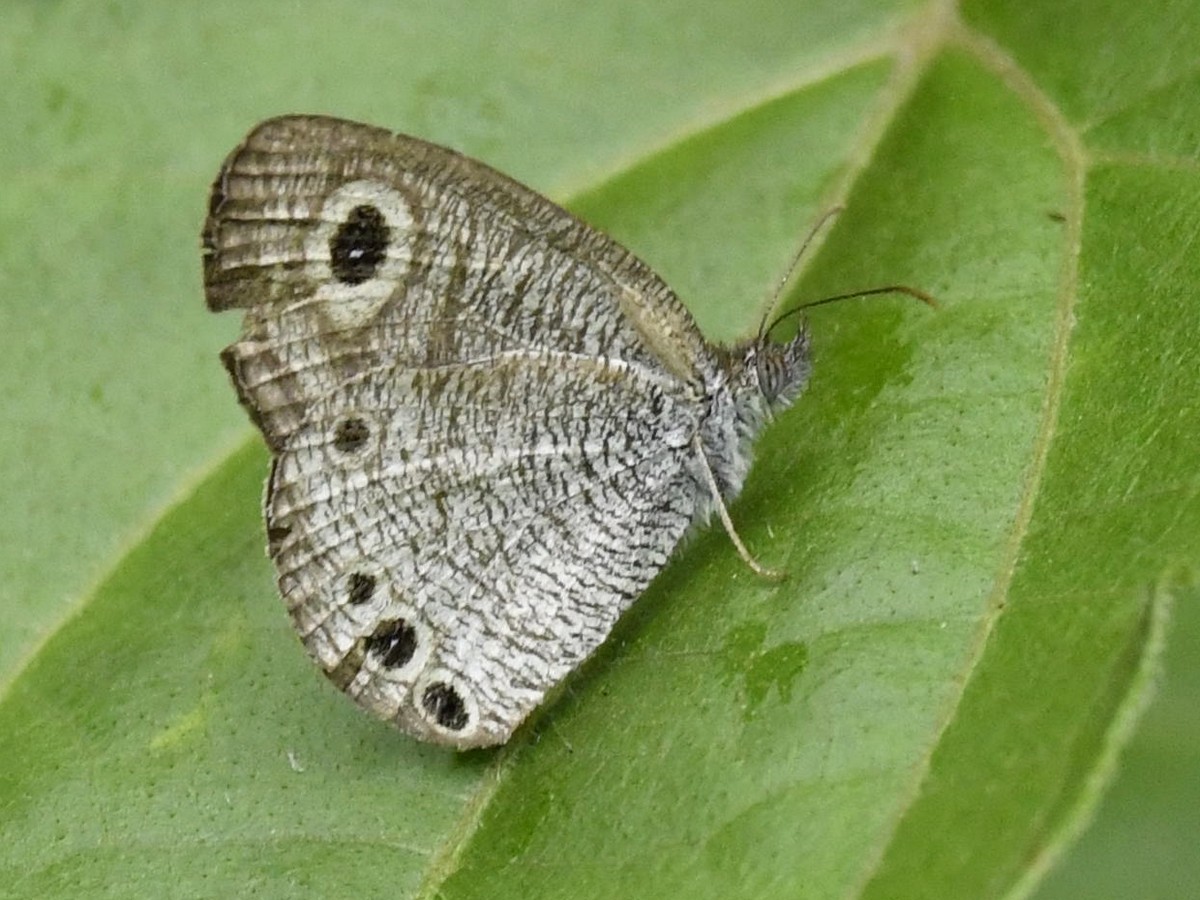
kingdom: Animalia
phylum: Arthropoda
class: Insecta
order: Lepidoptera
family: Nymphalidae
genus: Ypthima
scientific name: Ypthima huebneri
